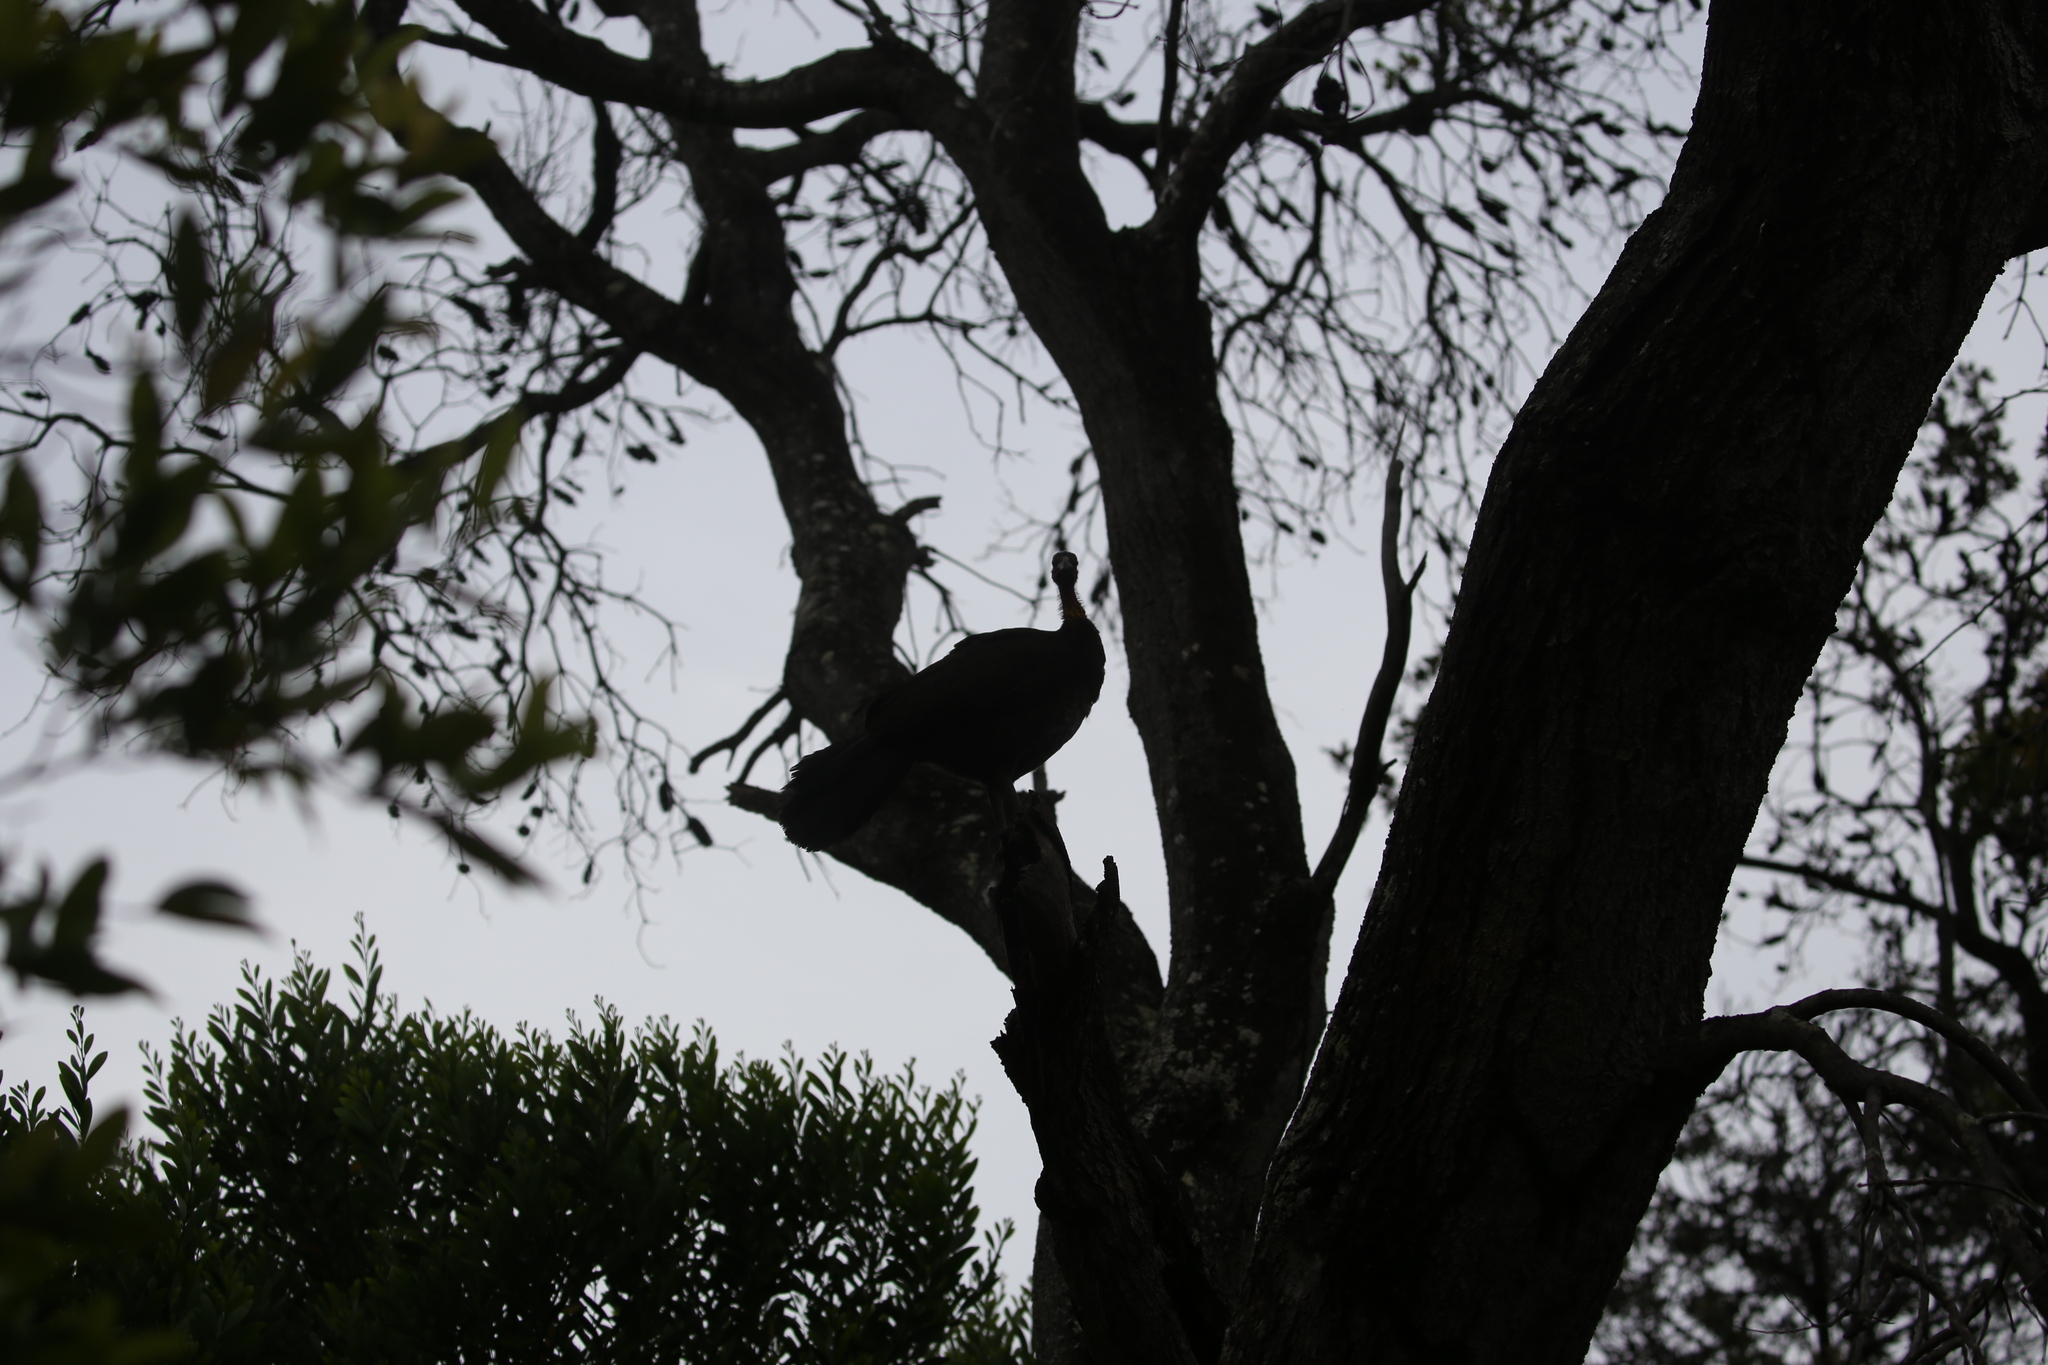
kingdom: Animalia
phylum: Chordata
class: Aves
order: Galliformes
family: Megapodiidae
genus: Alectura
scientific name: Alectura lathami
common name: Australian brushturkey
